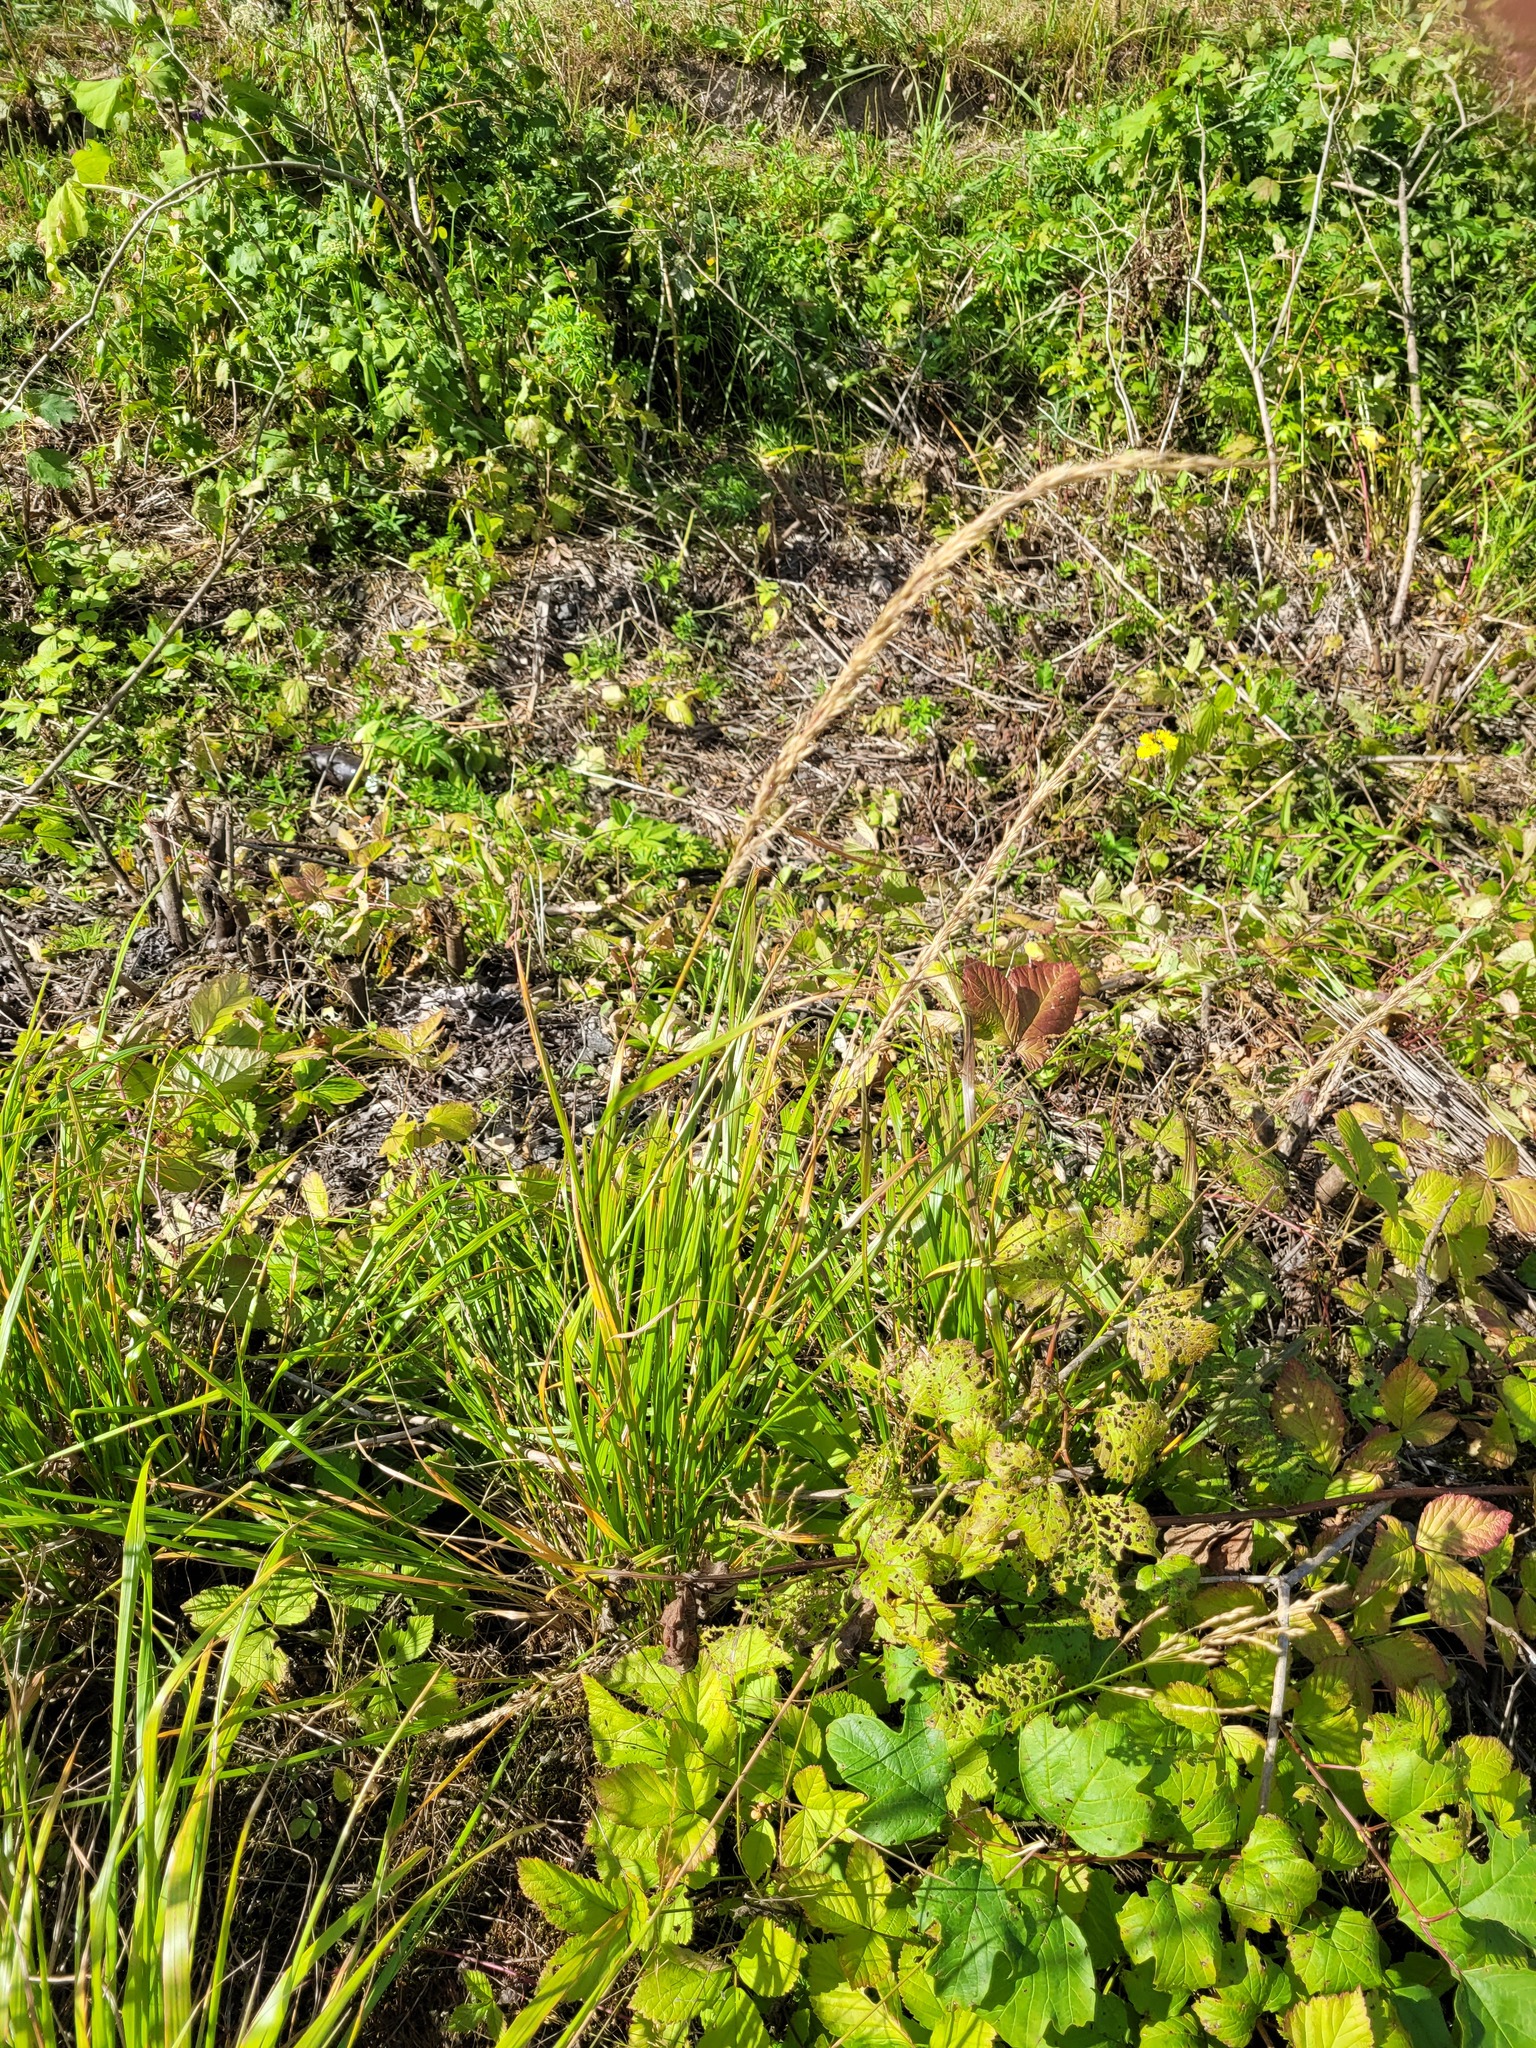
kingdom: Plantae
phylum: Tracheophyta
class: Liliopsida
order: Poales
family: Poaceae
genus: Calamagrostis
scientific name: Calamagrostis arundinacea
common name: Metskastik
